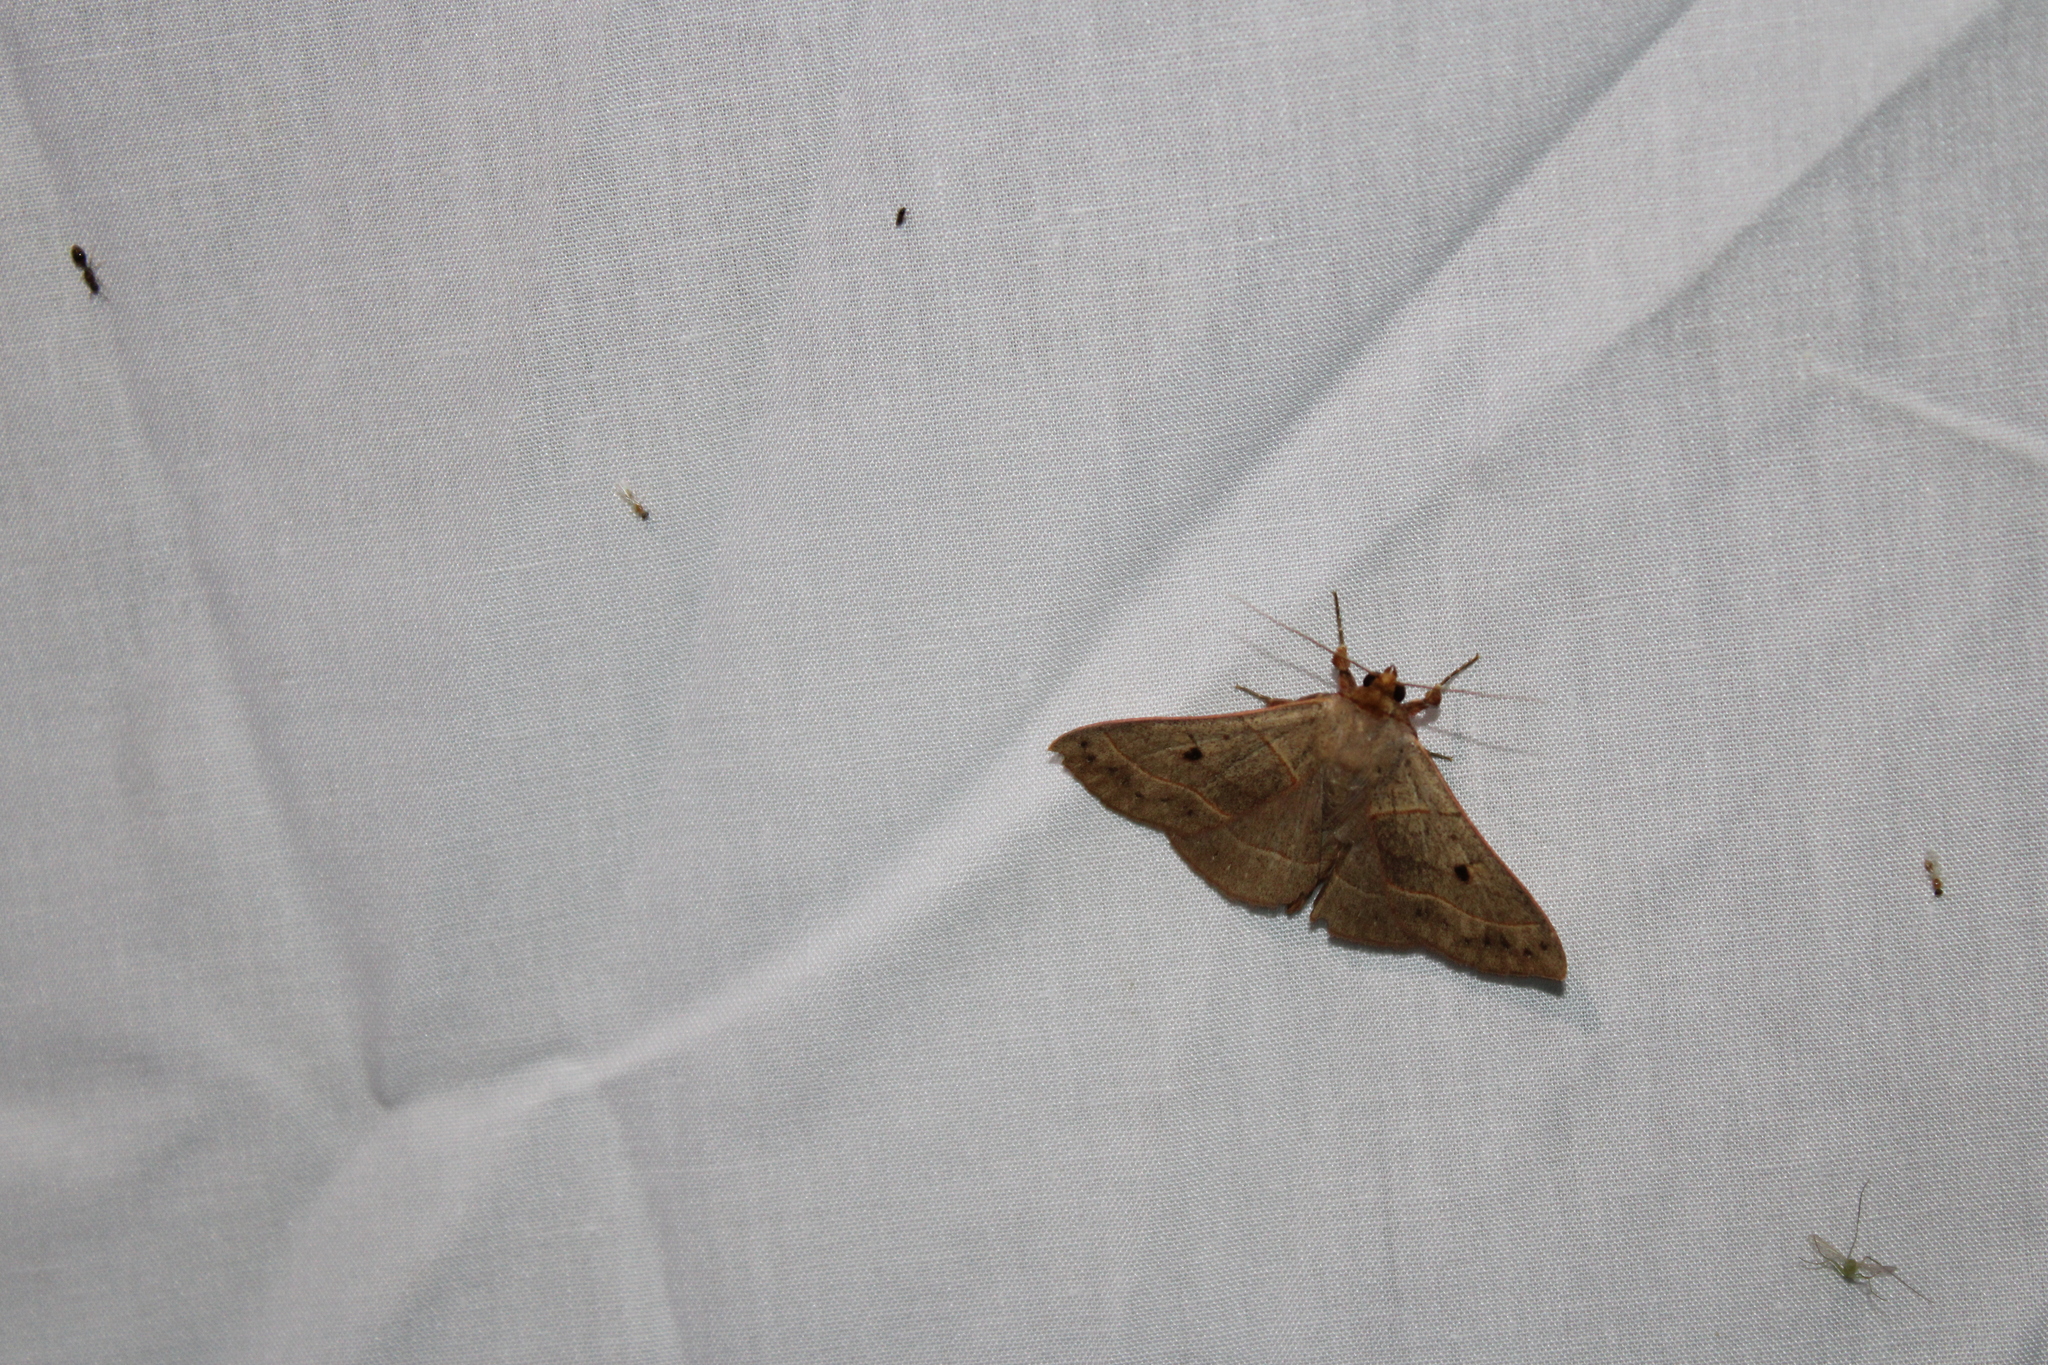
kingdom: Animalia
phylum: Arthropoda
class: Insecta
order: Lepidoptera
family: Erebidae
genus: Panopoda
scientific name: Panopoda rufimargo
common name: Red-lined panopoda moth
